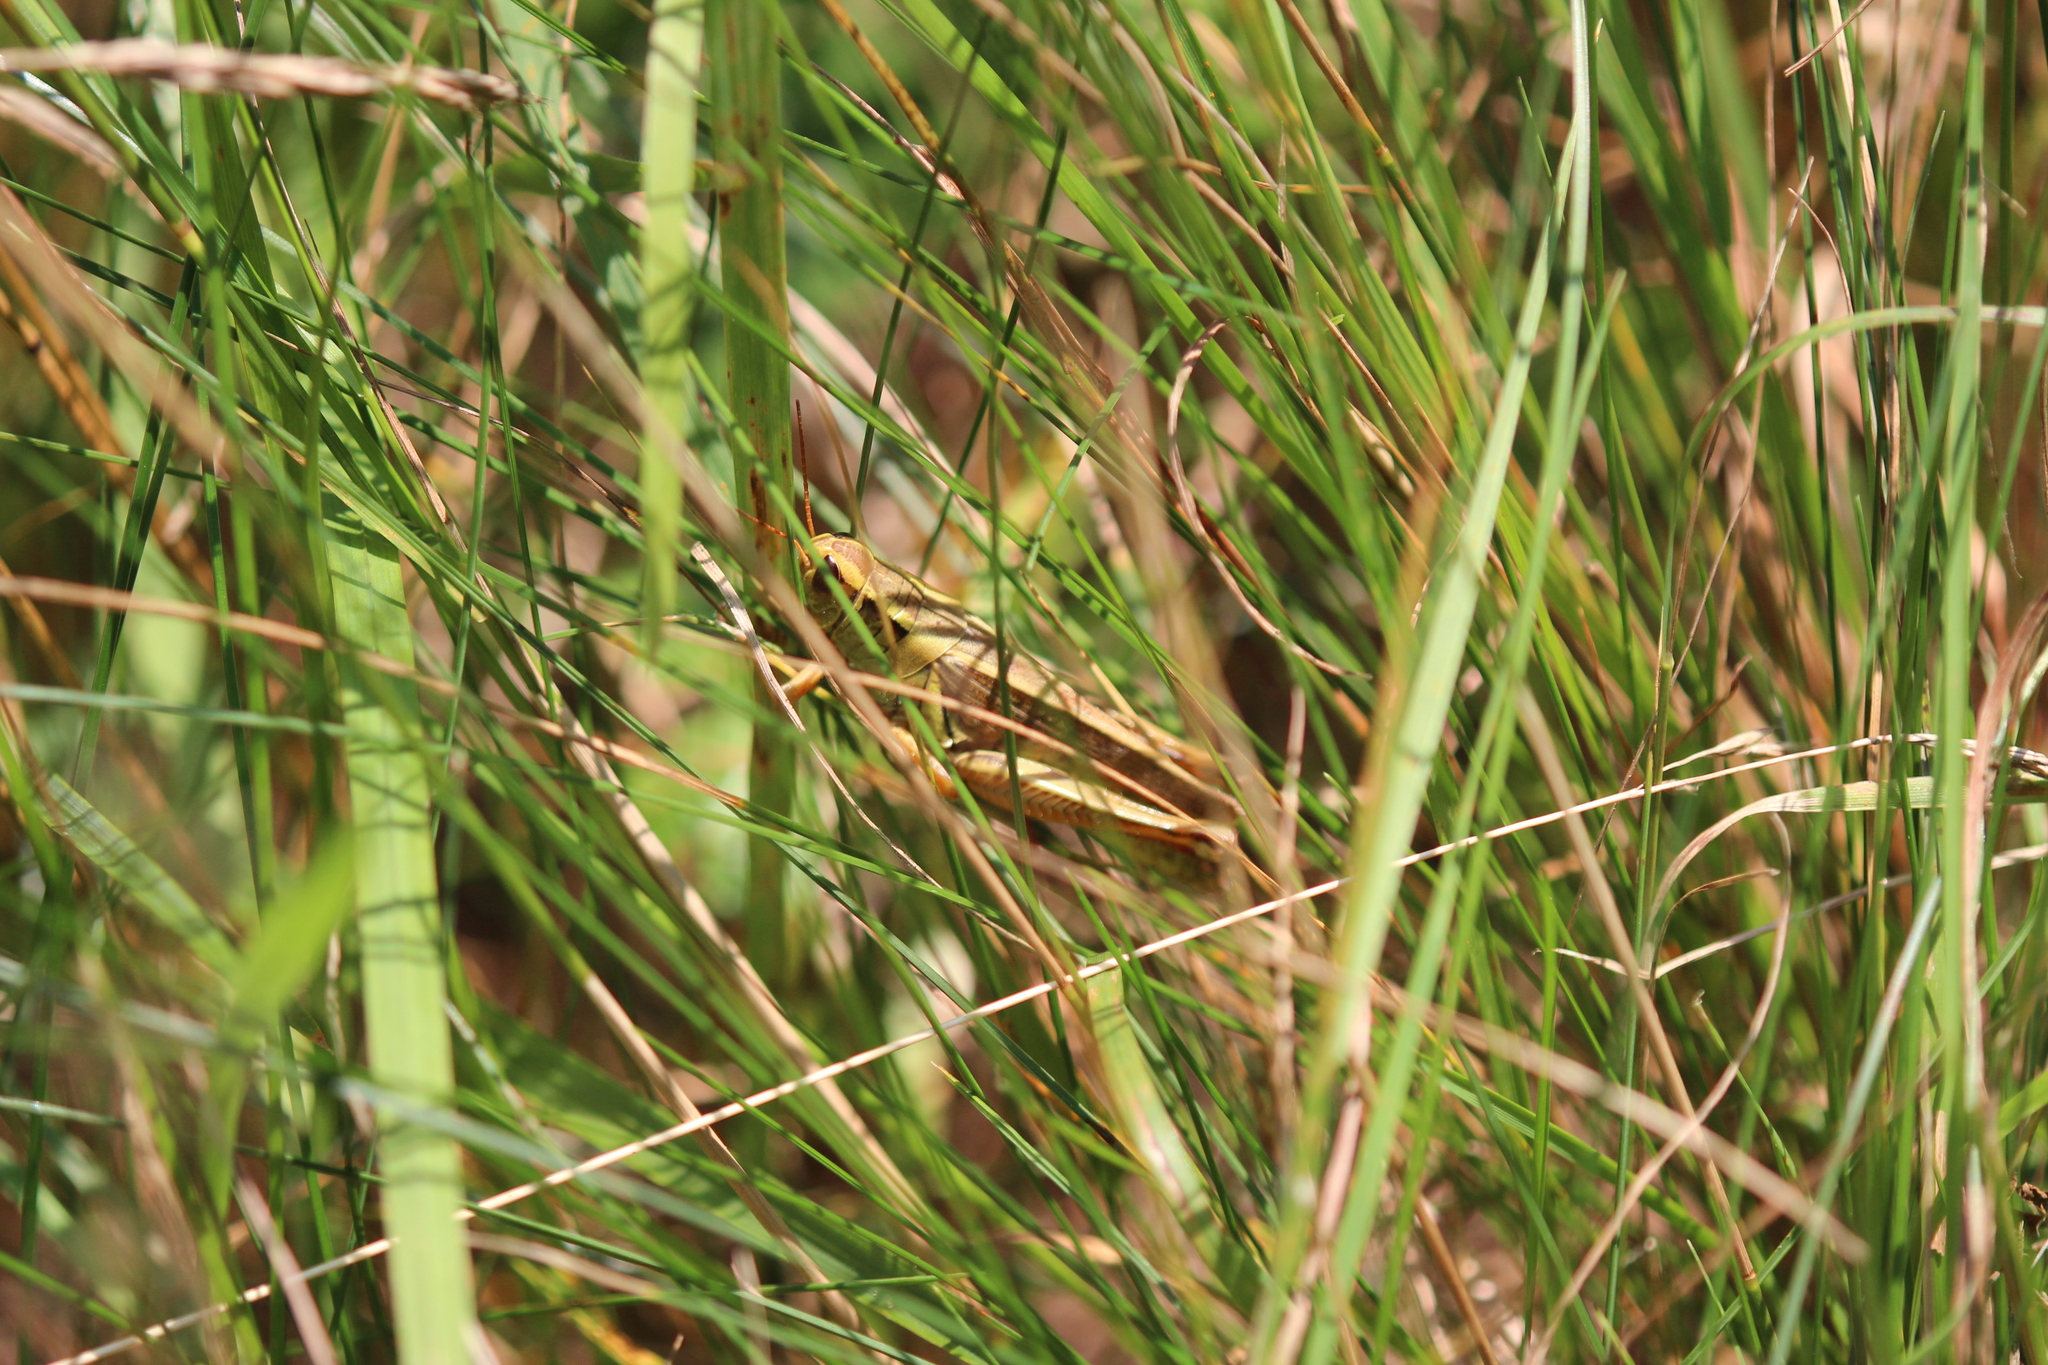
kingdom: Animalia
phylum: Arthropoda
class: Insecta
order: Orthoptera
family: Acrididae
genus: Melanoplus
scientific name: Melanoplus bivittatus
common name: Two-striped grasshopper
